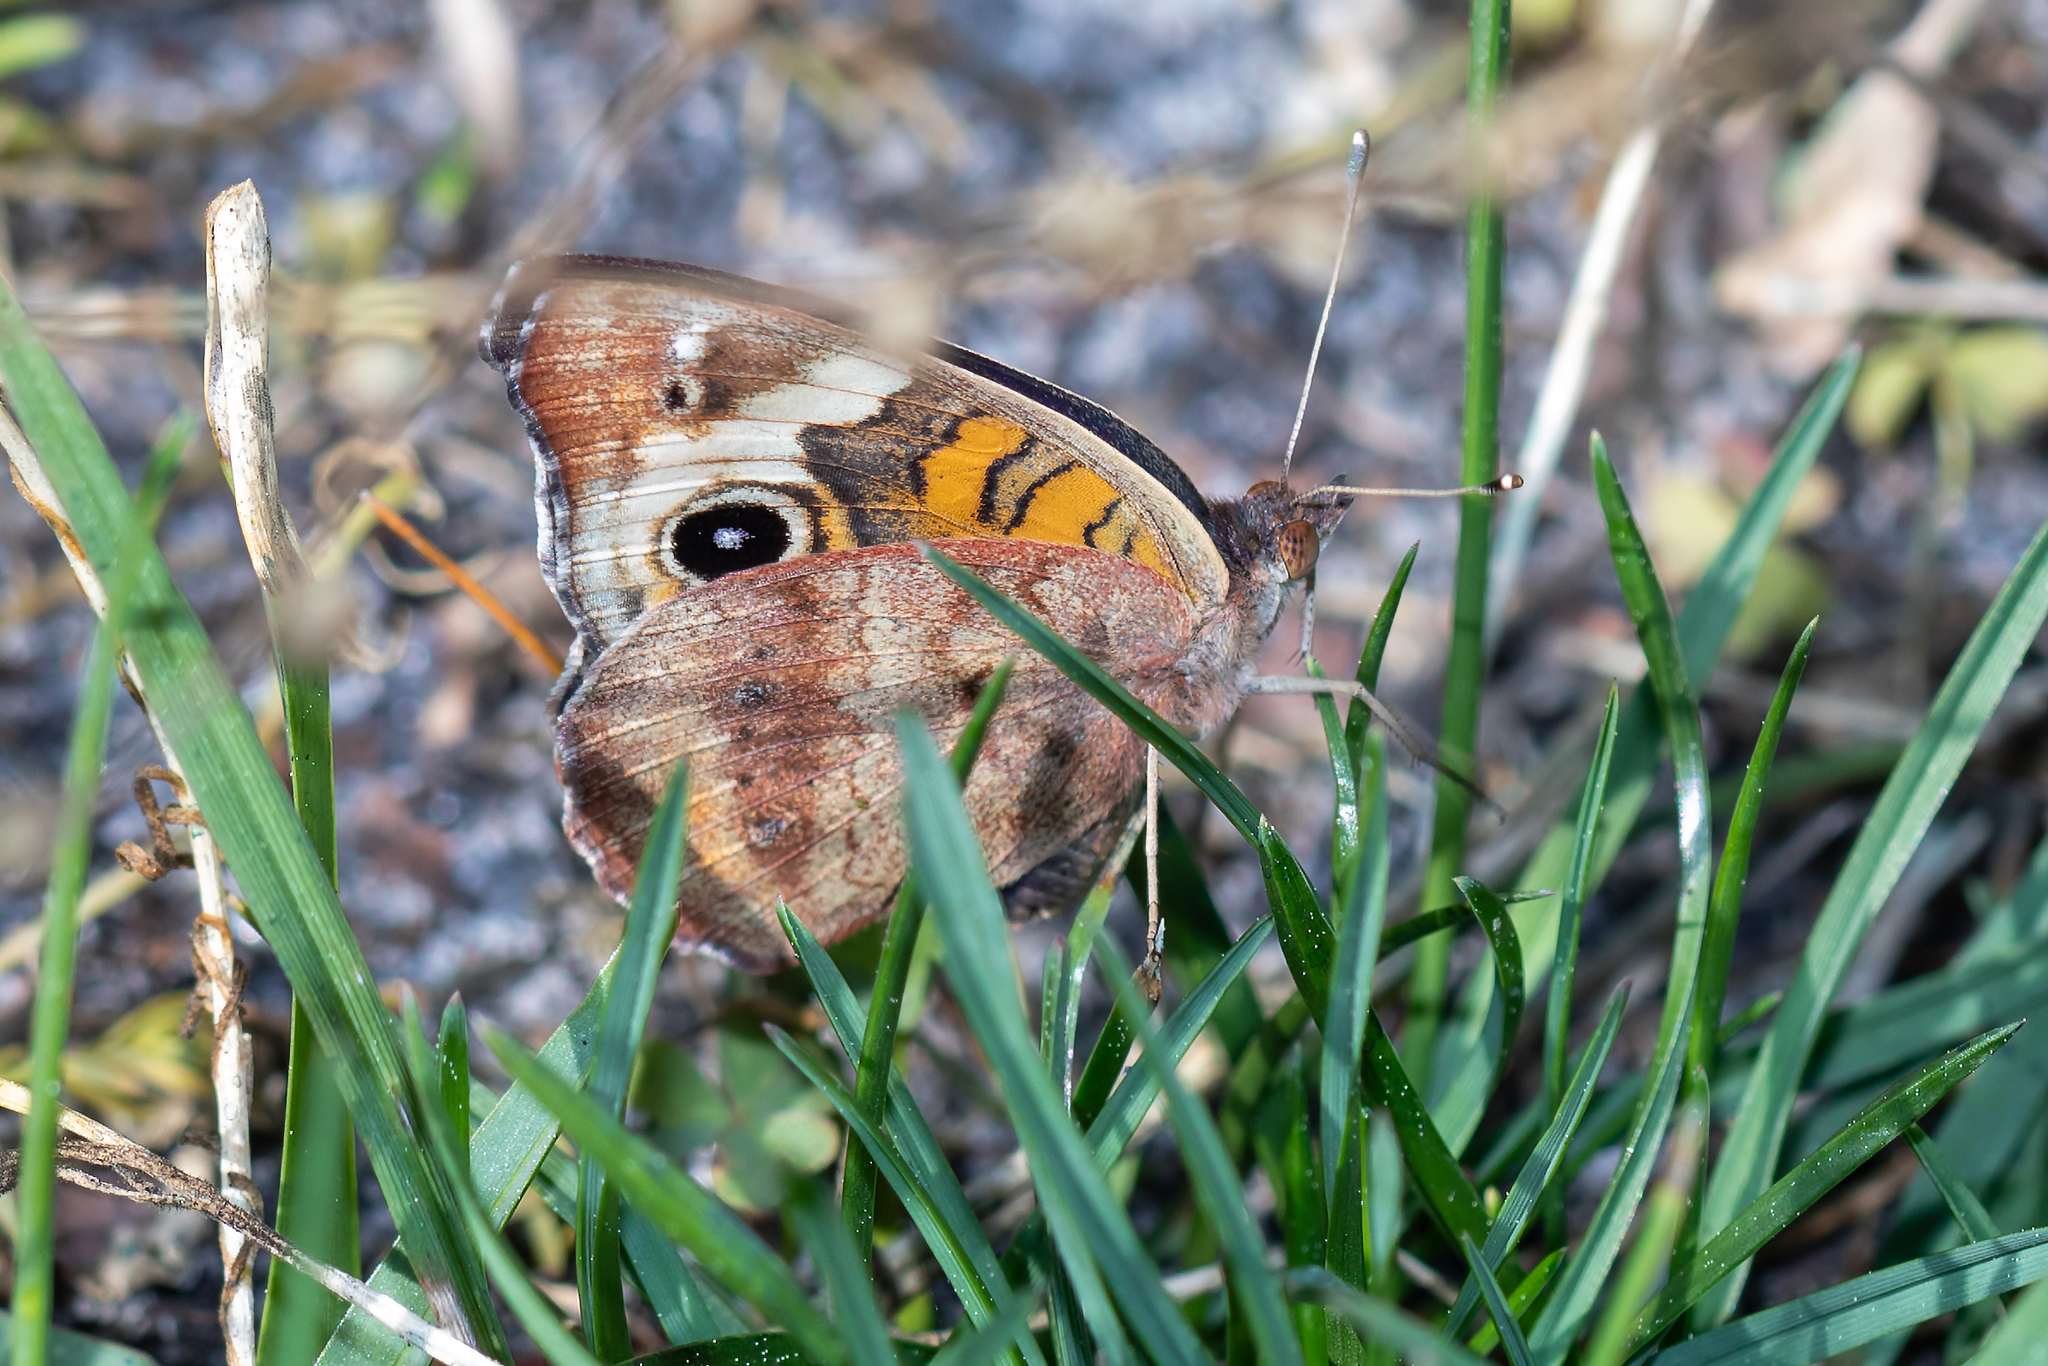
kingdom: Animalia
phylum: Arthropoda
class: Insecta
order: Lepidoptera
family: Nymphalidae
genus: Junonia
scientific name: Junonia coenia
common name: Common buckeye
